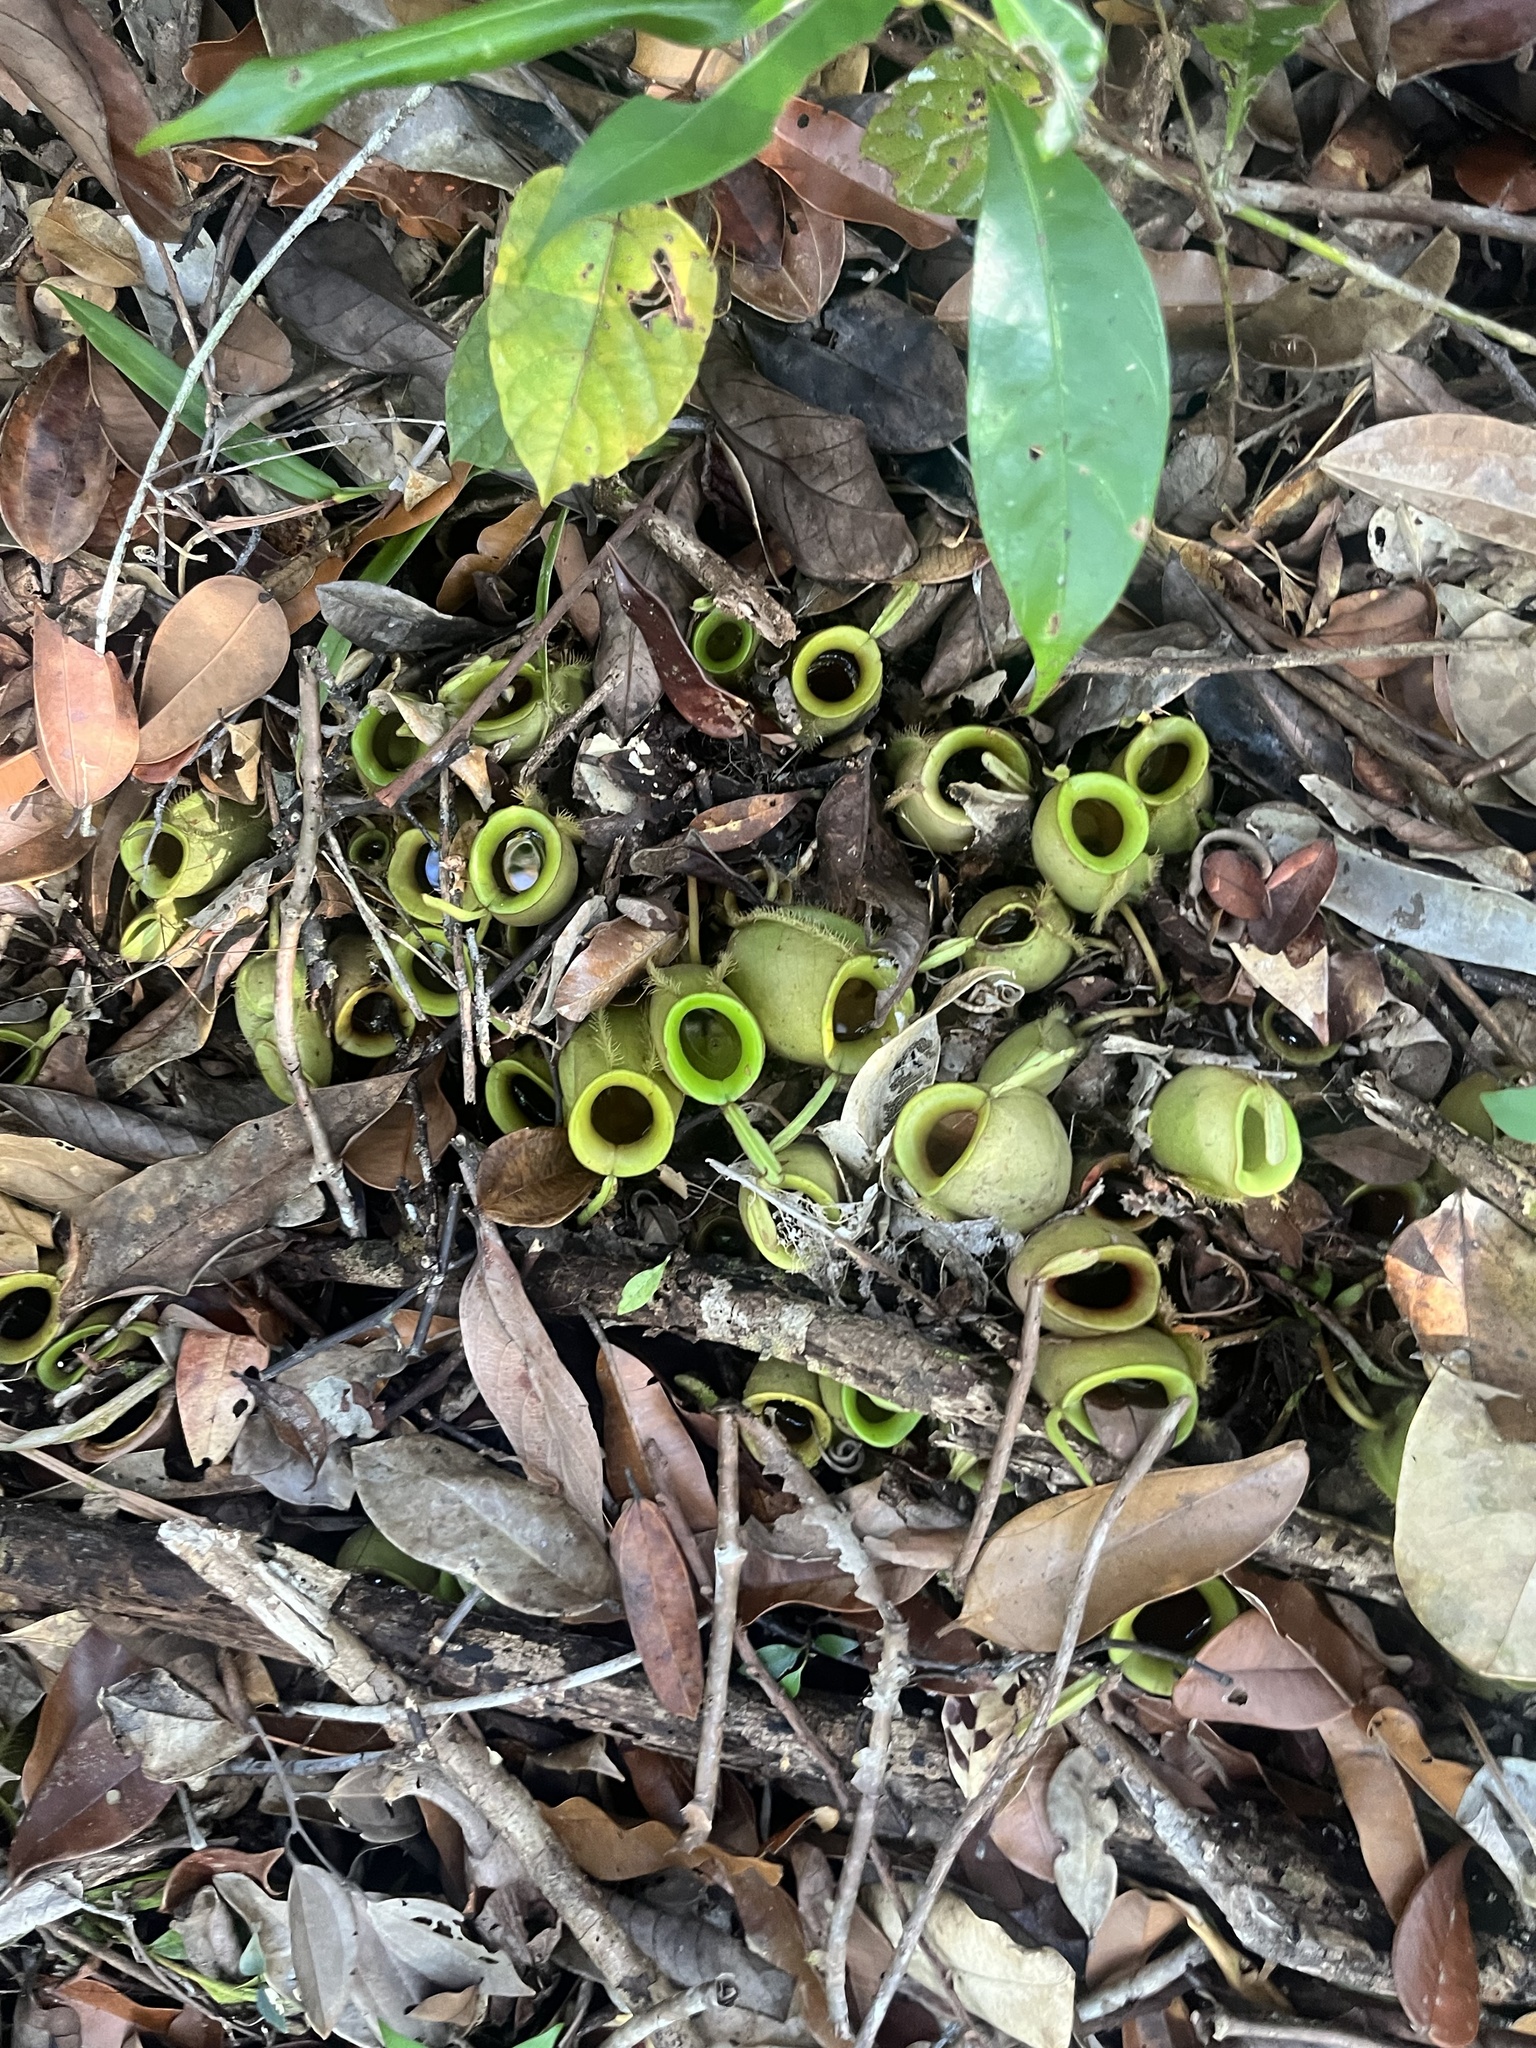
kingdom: Plantae
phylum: Tracheophyta
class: Magnoliopsida
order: Caryophyllales
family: Nepenthaceae
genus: Nepenthes
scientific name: Nepenthes ampullaria
